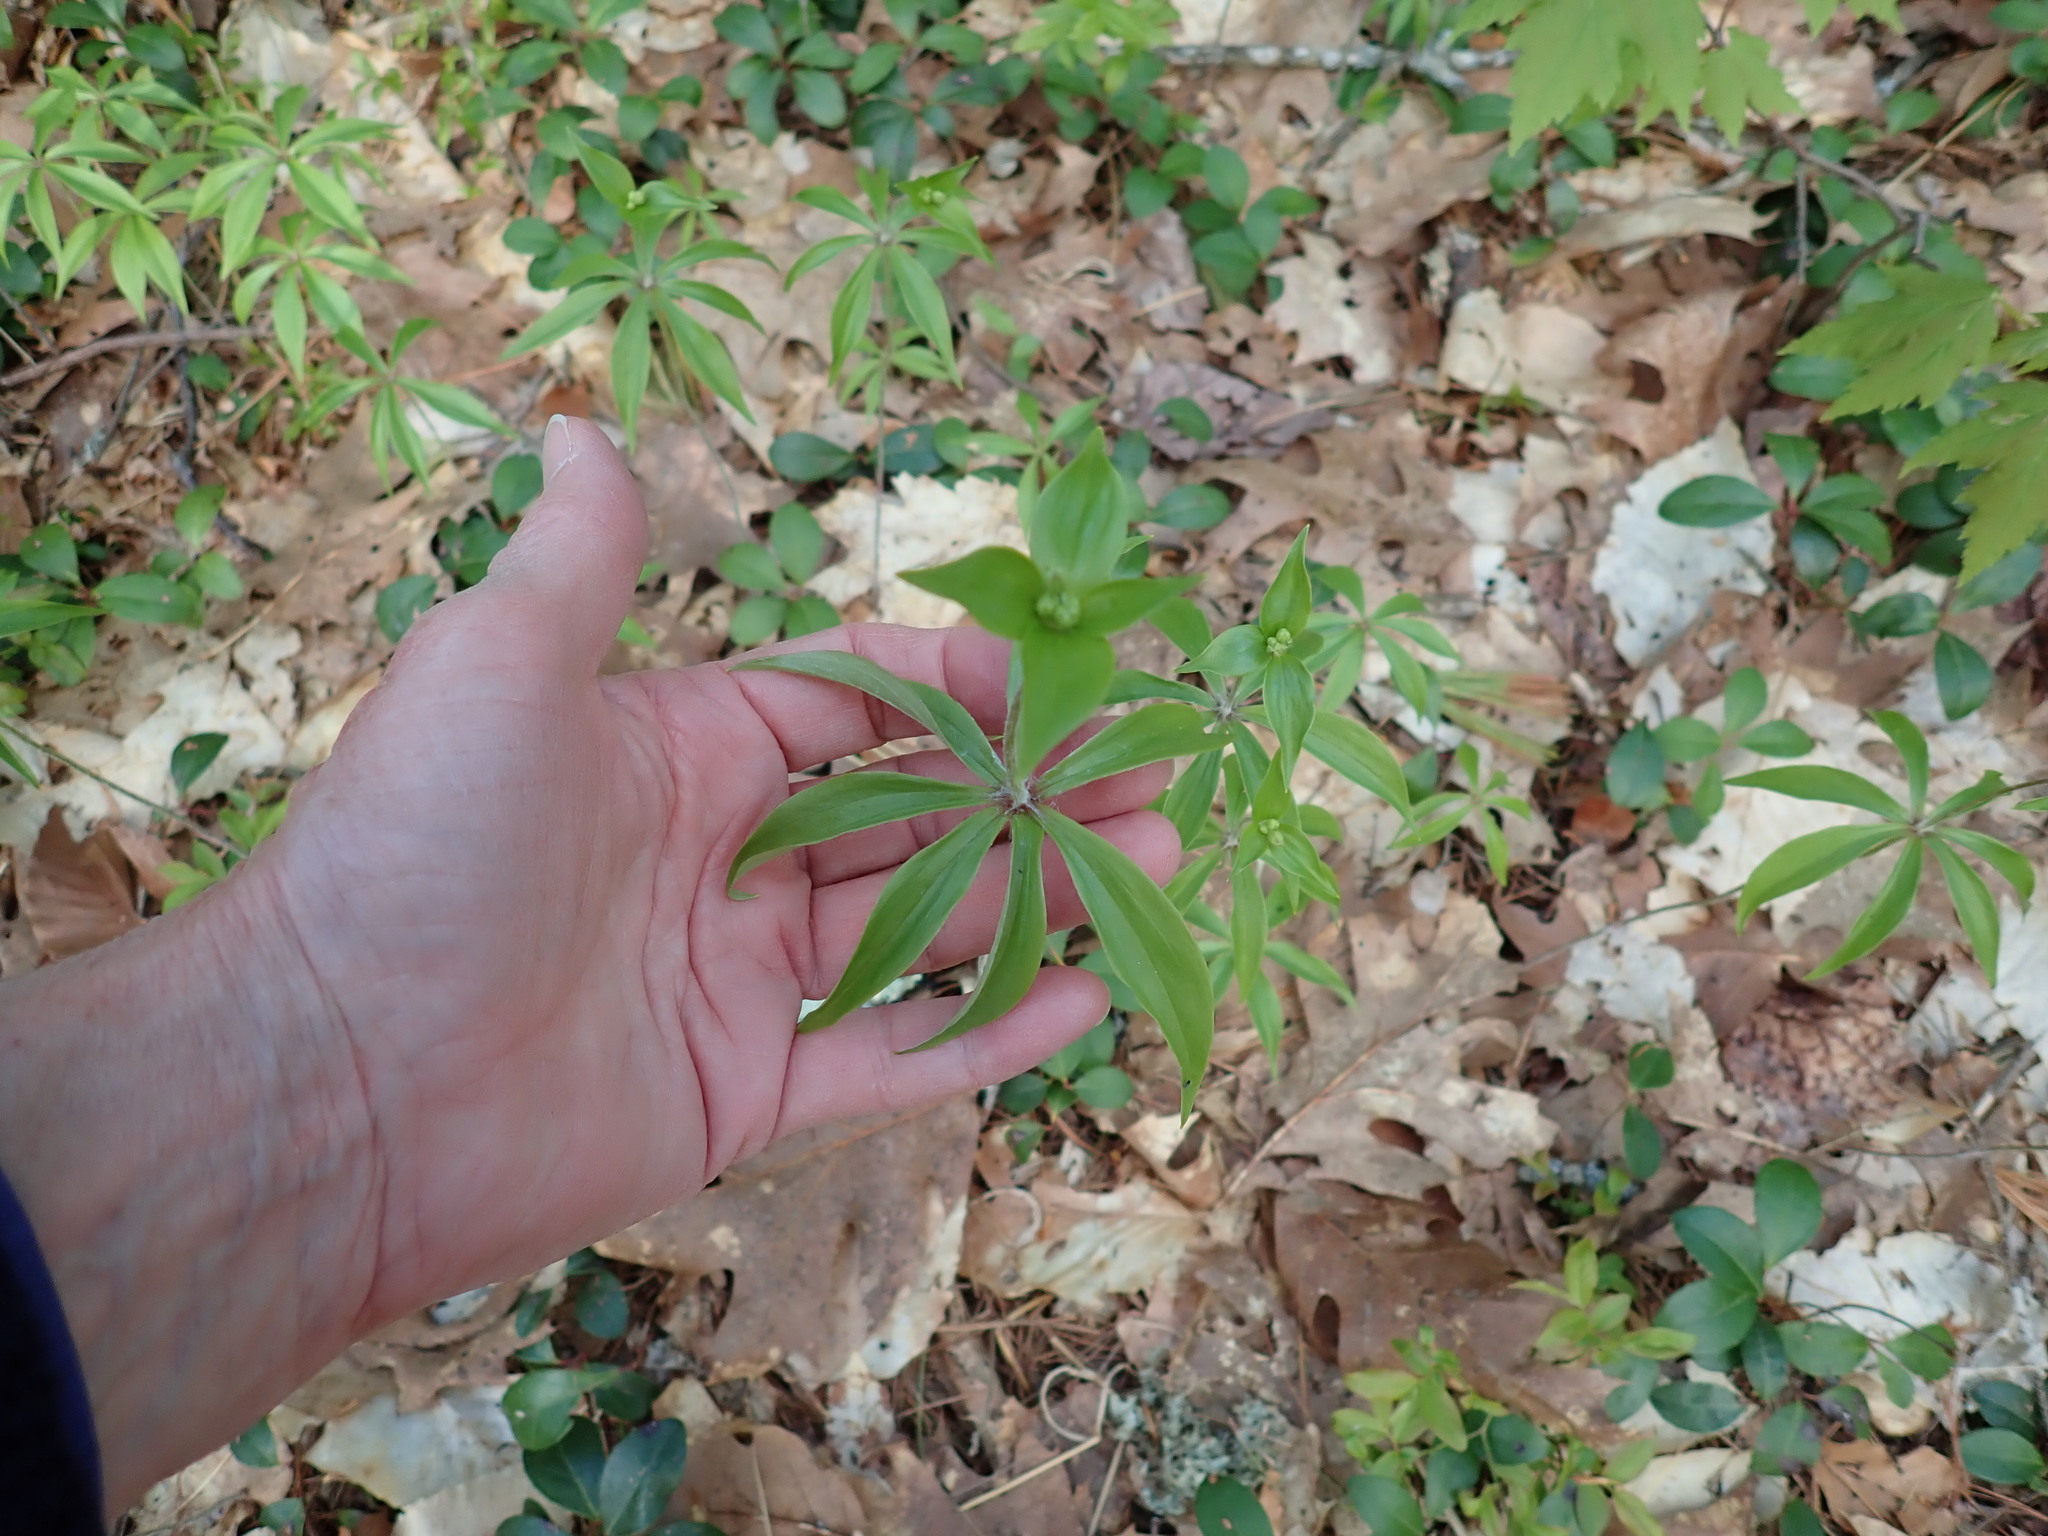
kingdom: Plantae
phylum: Tracheophyta
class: Liliopsida
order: Liliales
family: Liliaceae
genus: Medeola
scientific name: Medeola virginiana
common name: Indian cucumber-root
